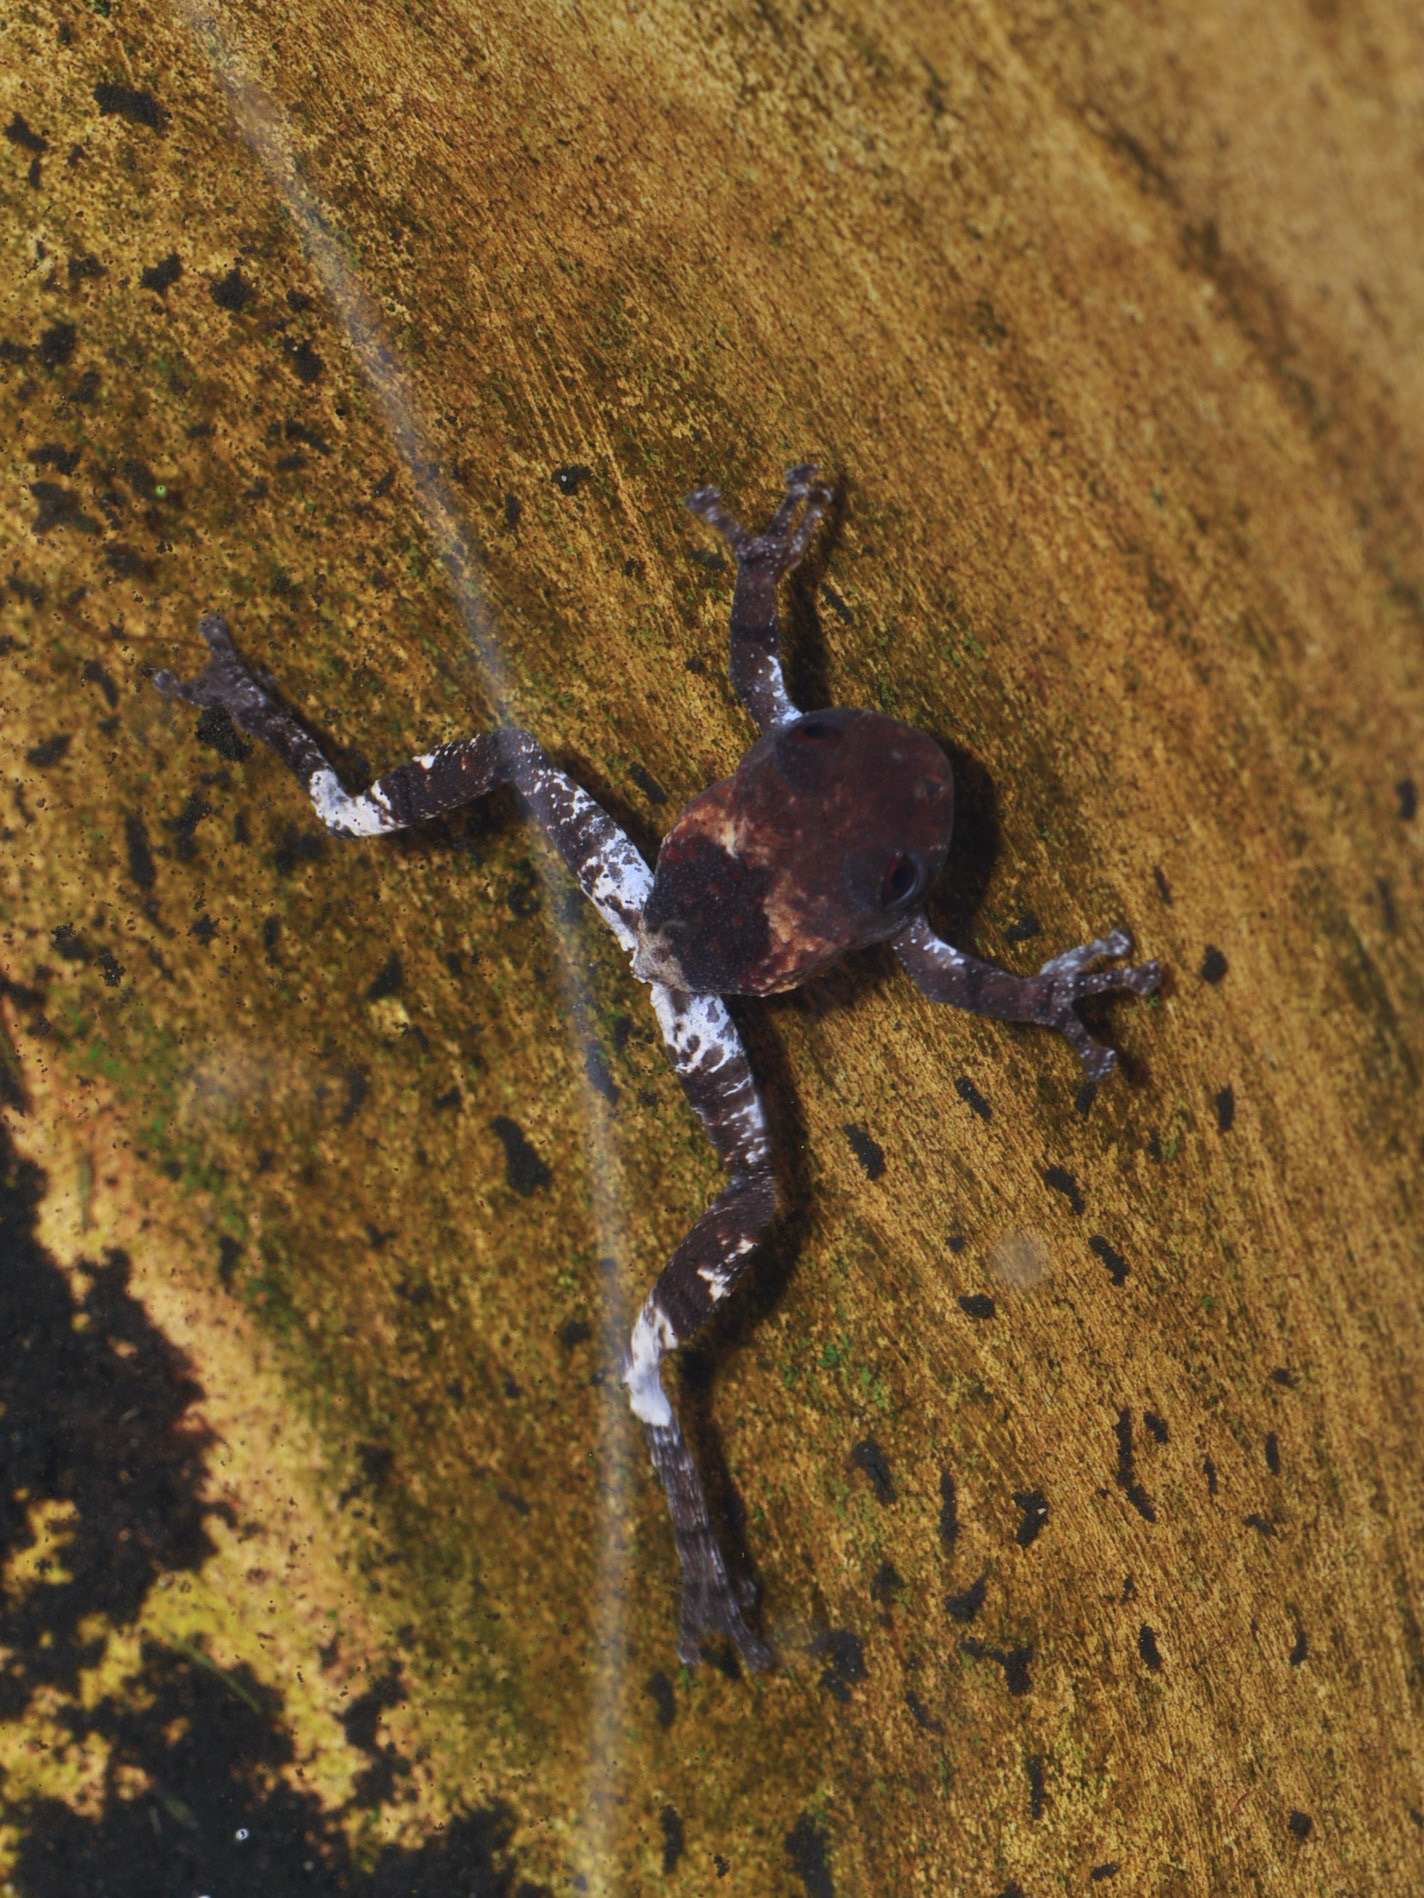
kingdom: Animalia
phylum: Chordata
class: Amphibia
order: Anura
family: Rhacophoridae
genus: Theloderma
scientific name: Theloderma asperum
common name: Pied wart frog
